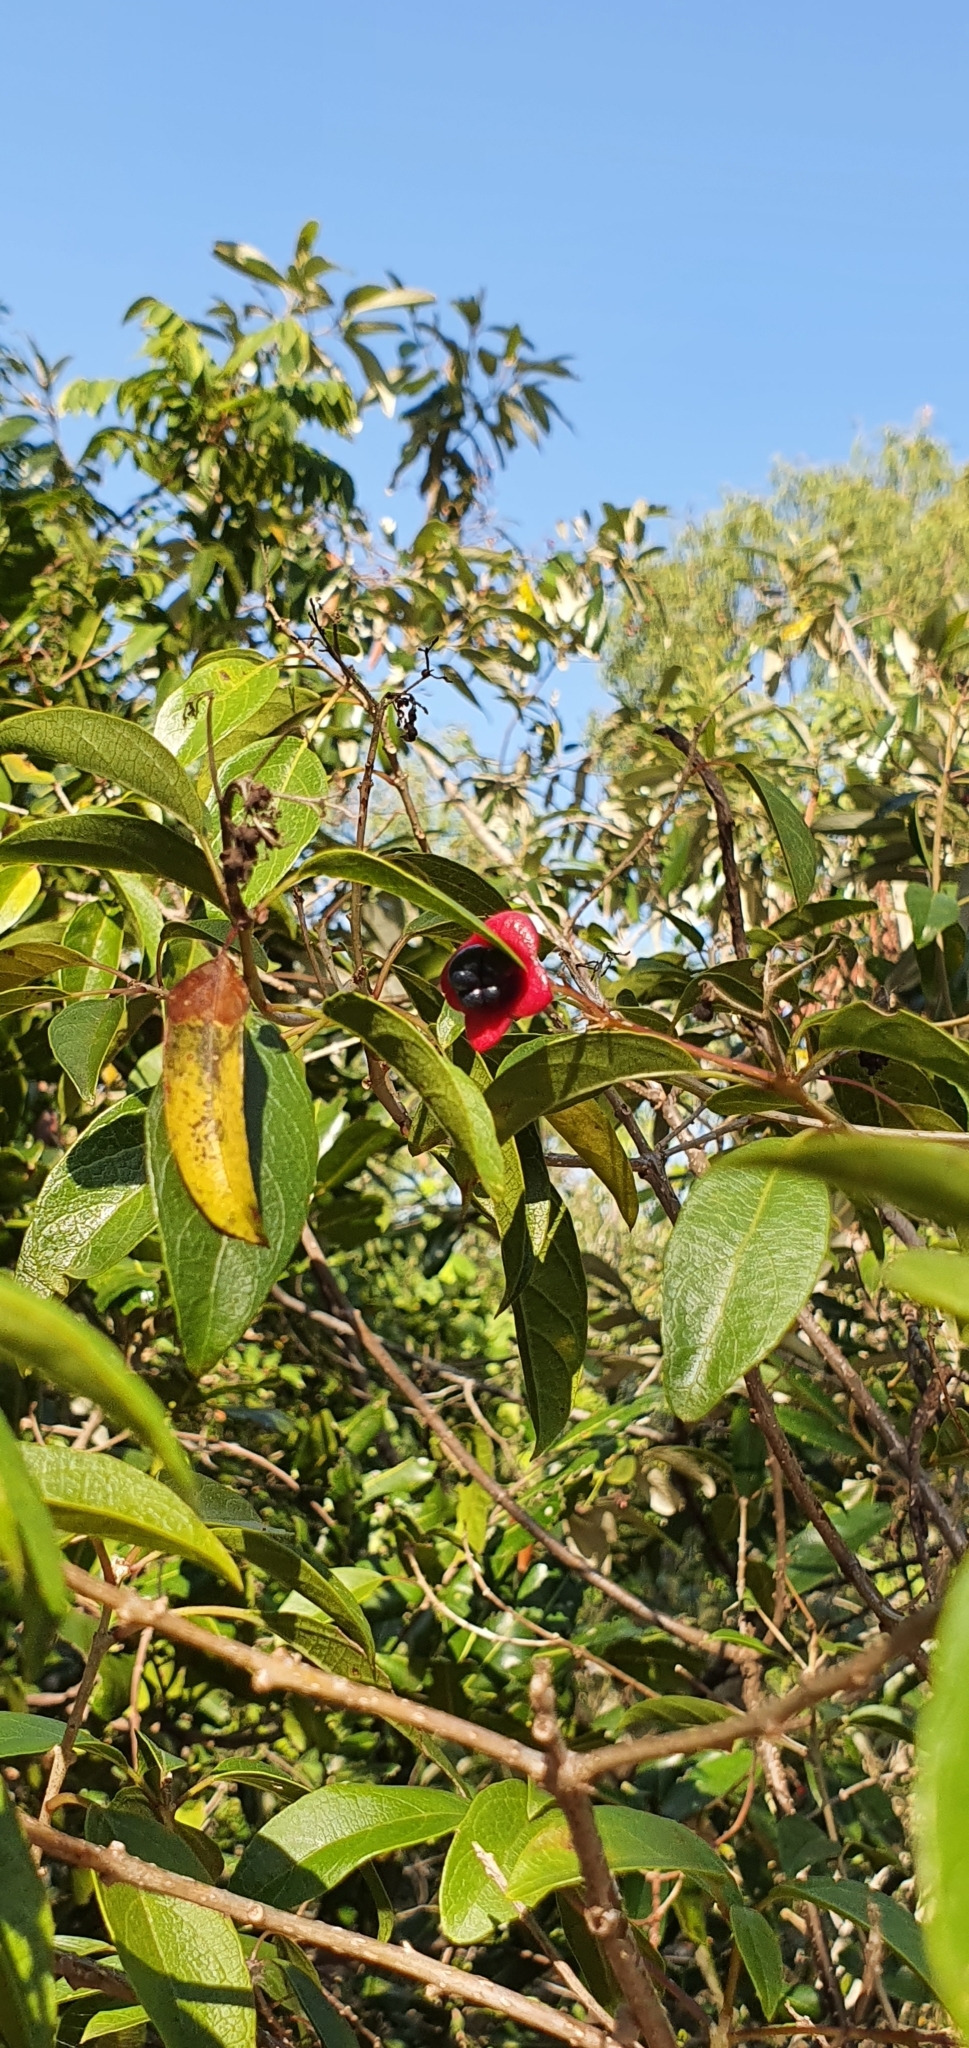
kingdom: Plantae
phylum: Tracheophyta
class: Magnoliopsida
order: Lamiales
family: Lamiaceae
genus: Clerodendrum
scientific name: Clerodendrum floribundum
